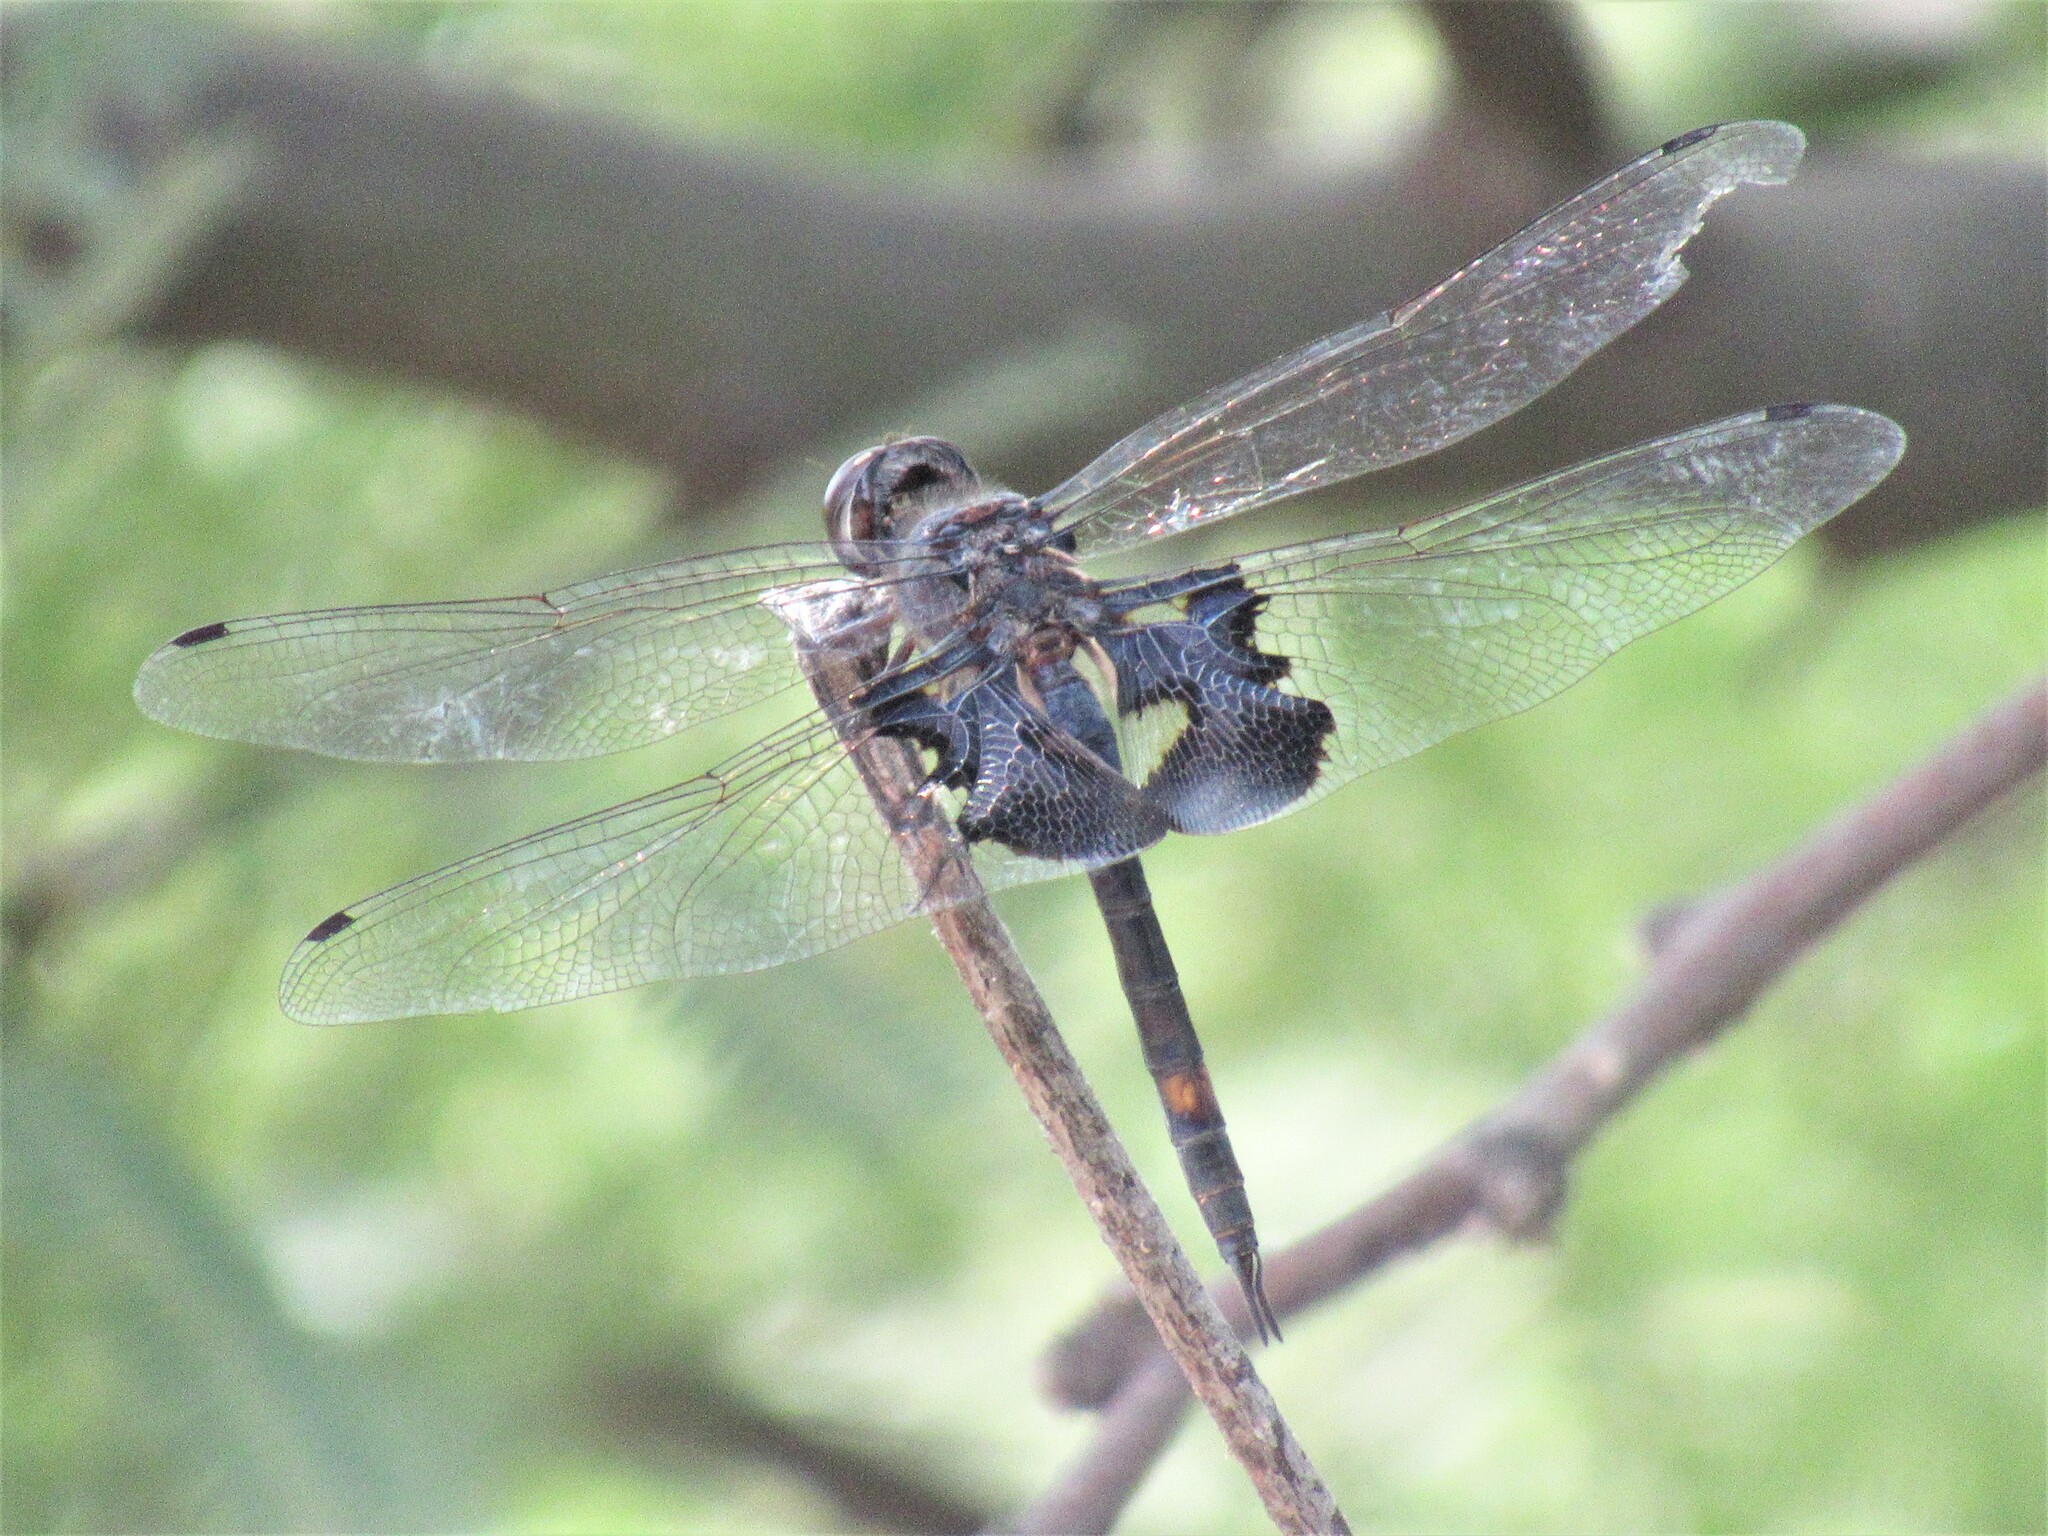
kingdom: Animalia
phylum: Arthropoda
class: Insecta
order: Odonata
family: Libellulidae
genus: Tramea
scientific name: Tramea lacerata
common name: Black saddlebags
